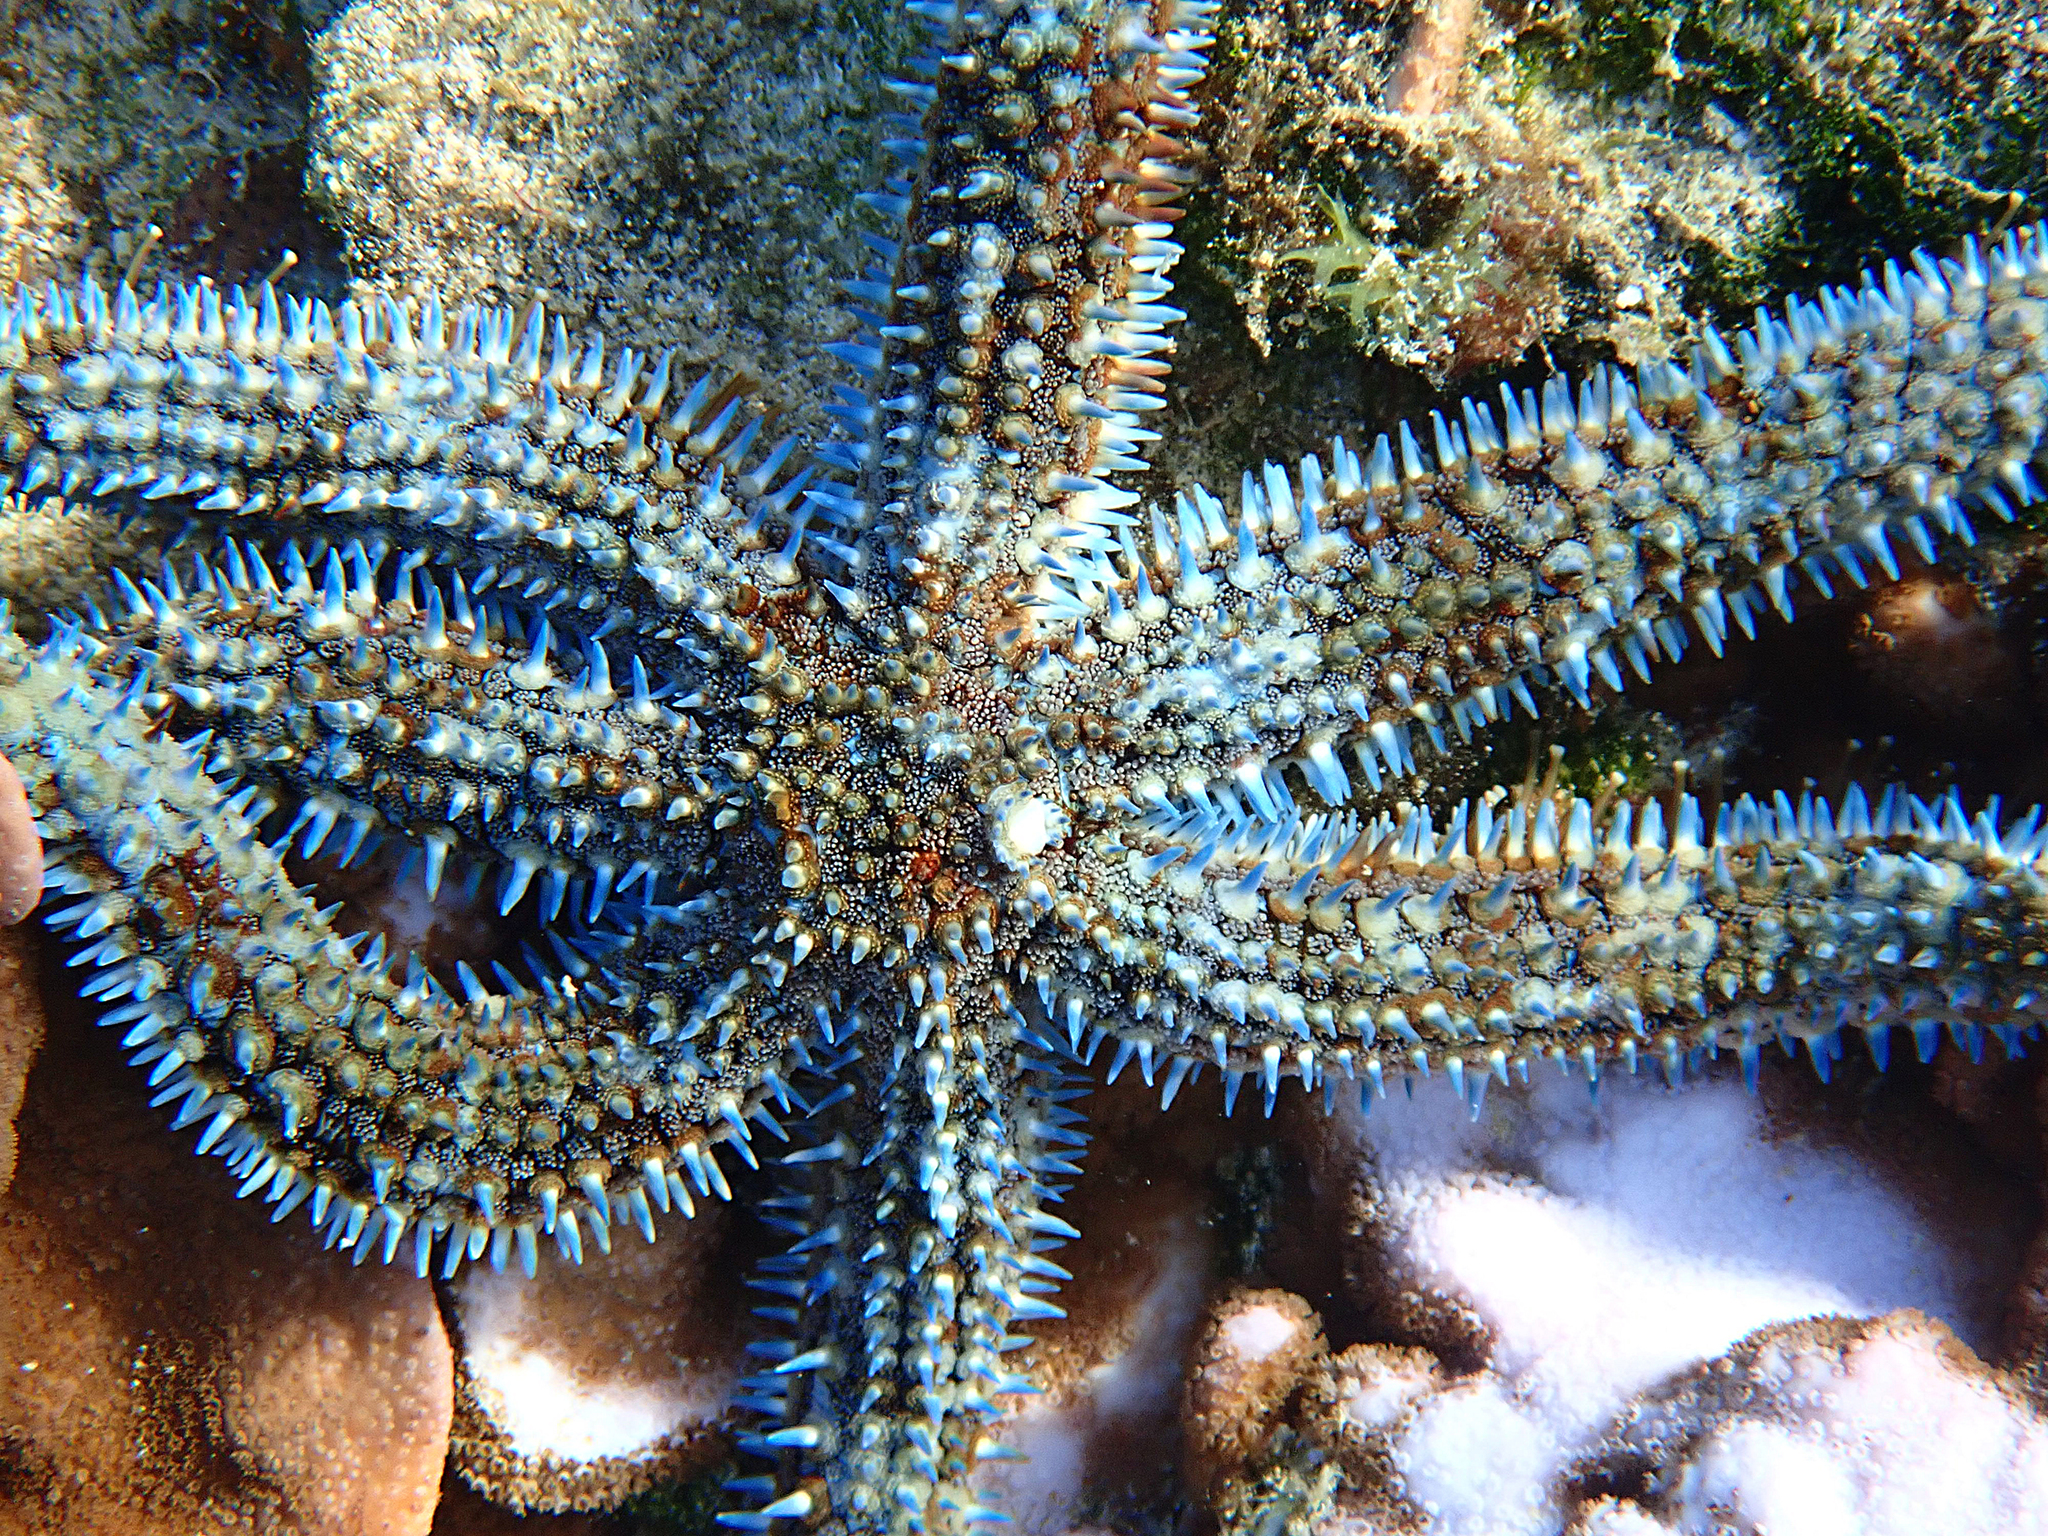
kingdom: Animalia
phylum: Echinodermata
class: Asteroidea
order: Forcipulatida
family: Asteriidae
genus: Astrostole
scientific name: Astrostole rodolphi
